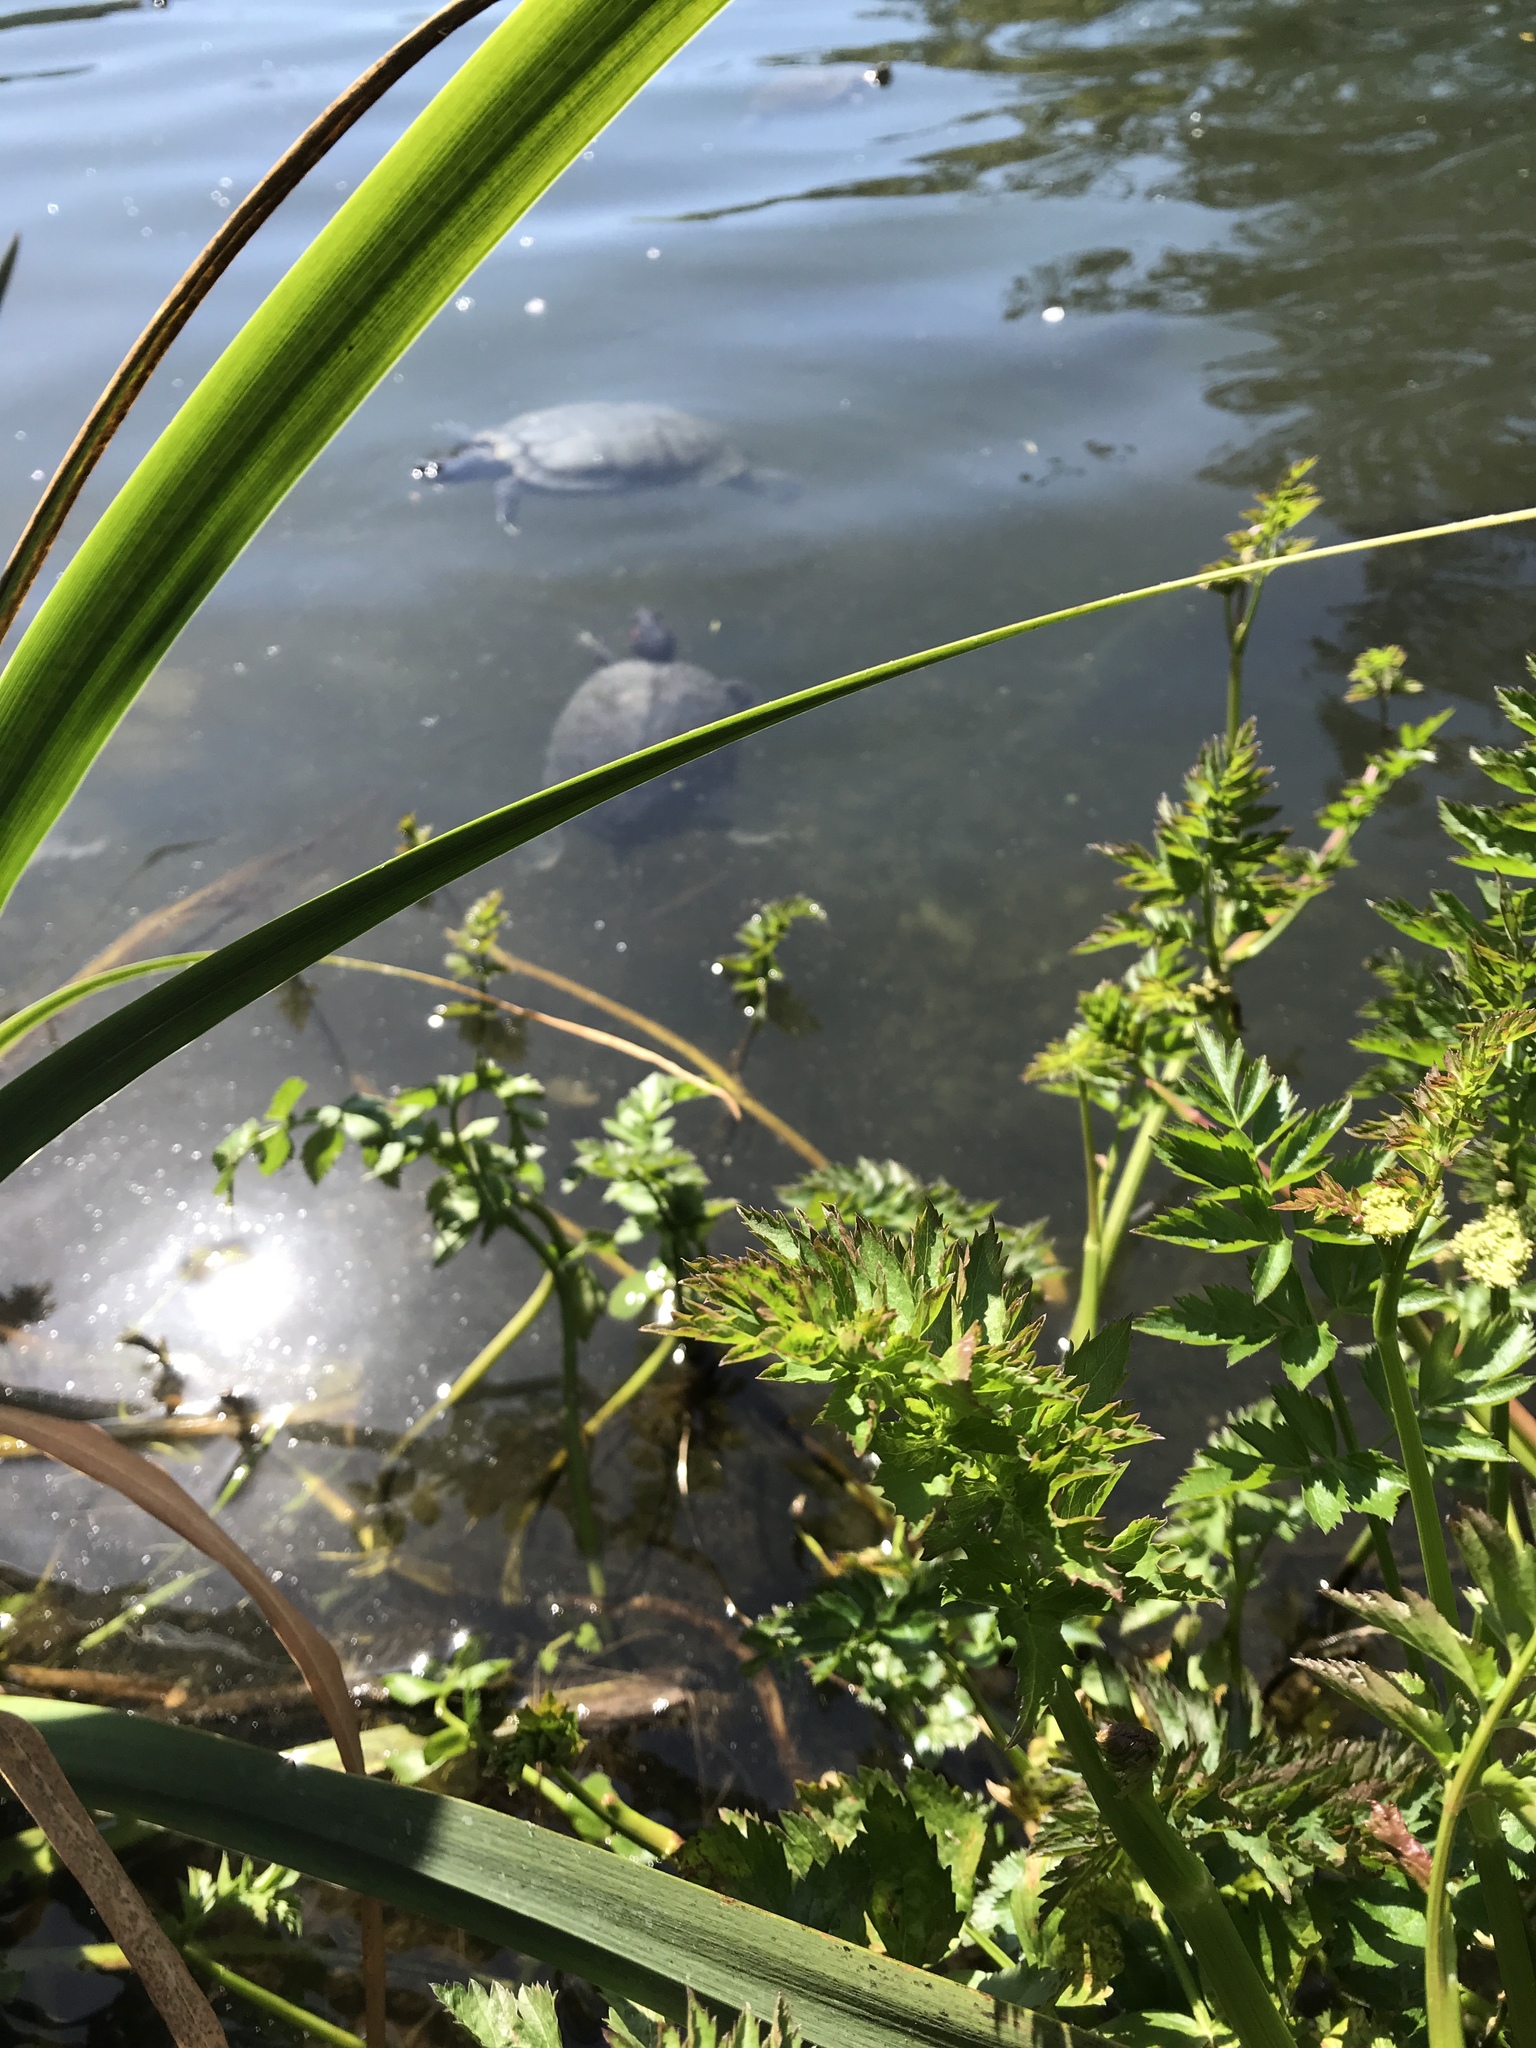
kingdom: Animalia
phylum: Chordata
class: Testudines
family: Emydidae
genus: Trachemys
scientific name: Trachemys scripta
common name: Slider
